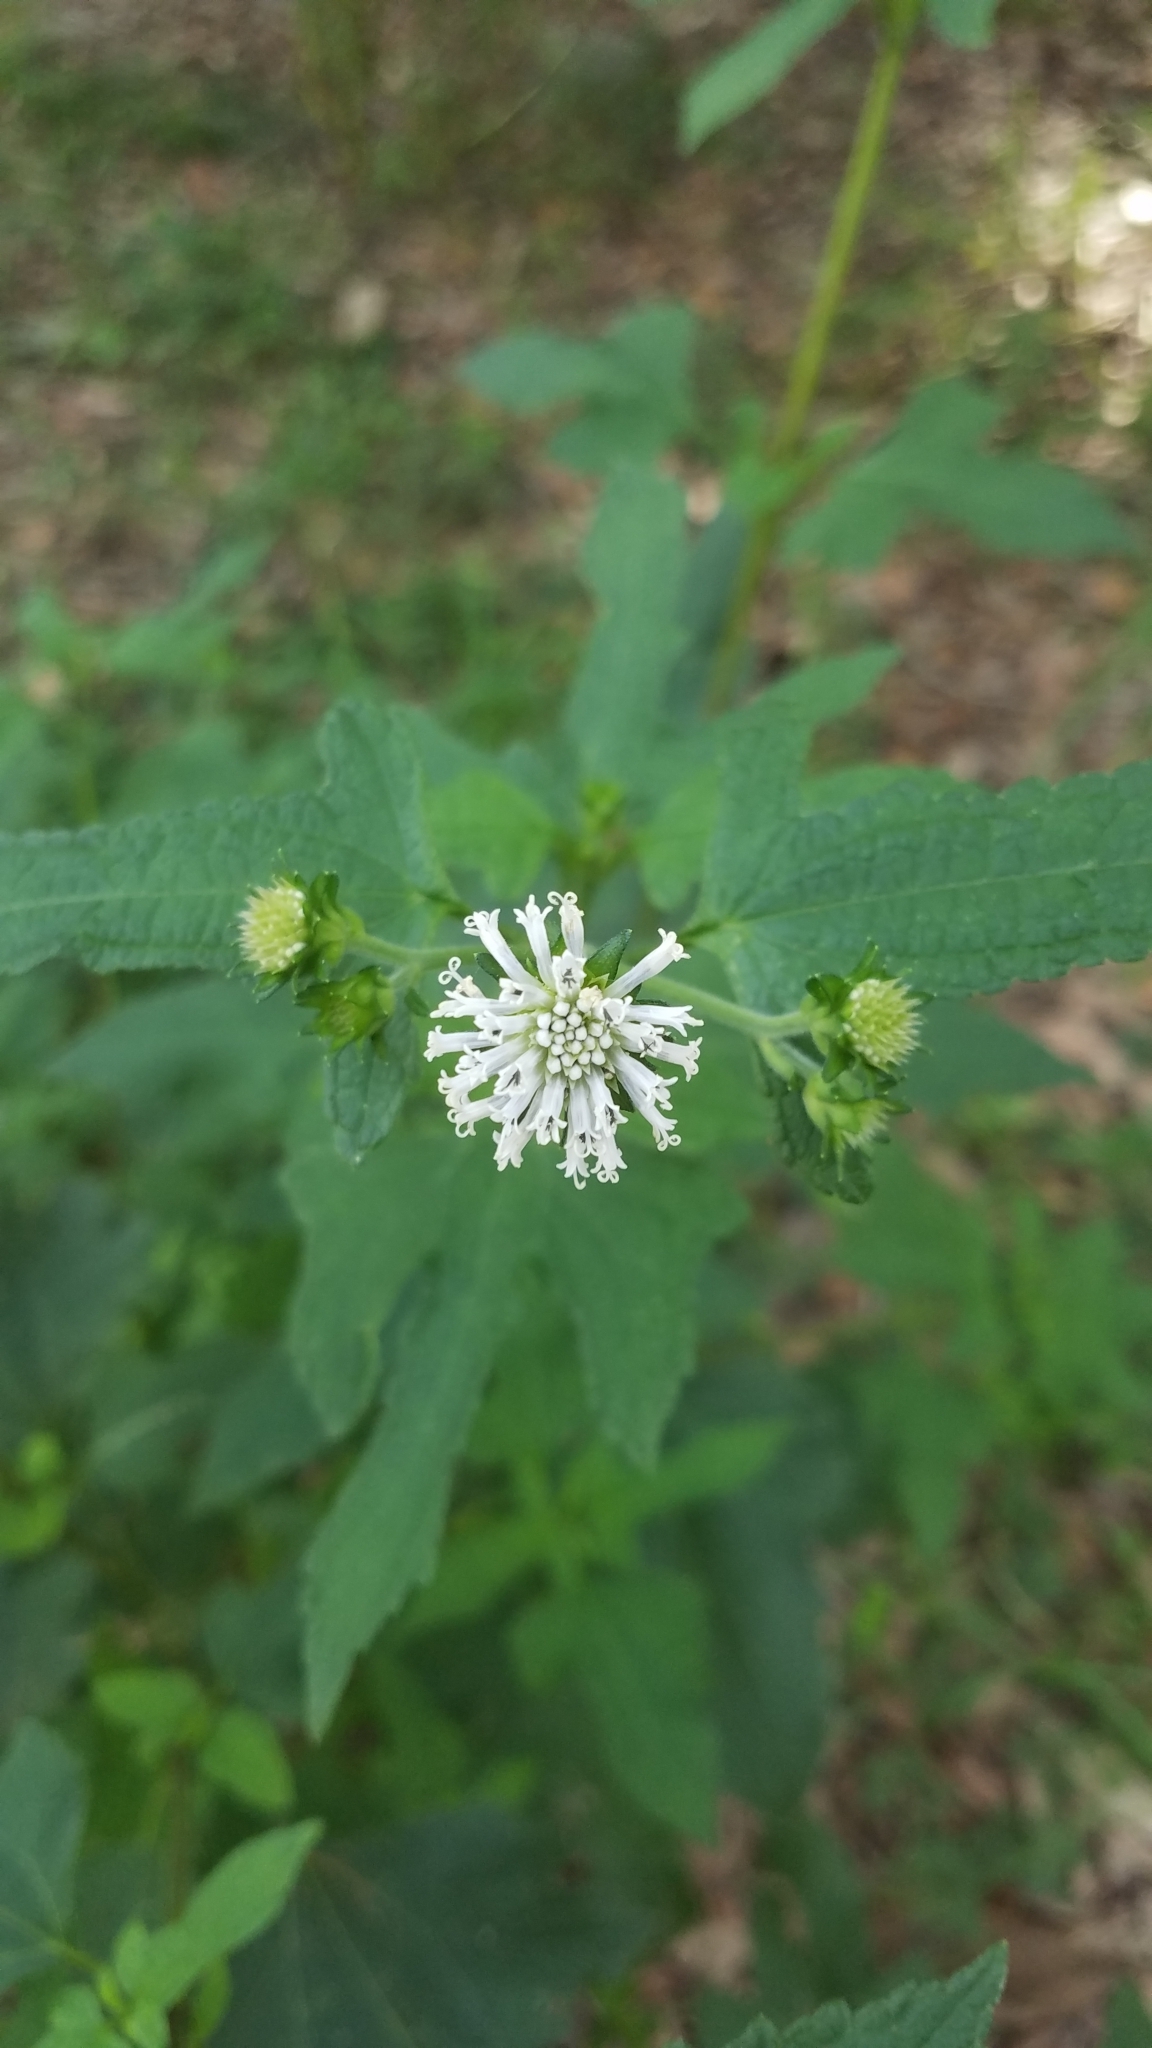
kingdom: Plantae
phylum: Tracheophyta
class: Magnoliopsida
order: Asterales
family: Asteraceae
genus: Melanthera
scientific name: Melanthera nivea
